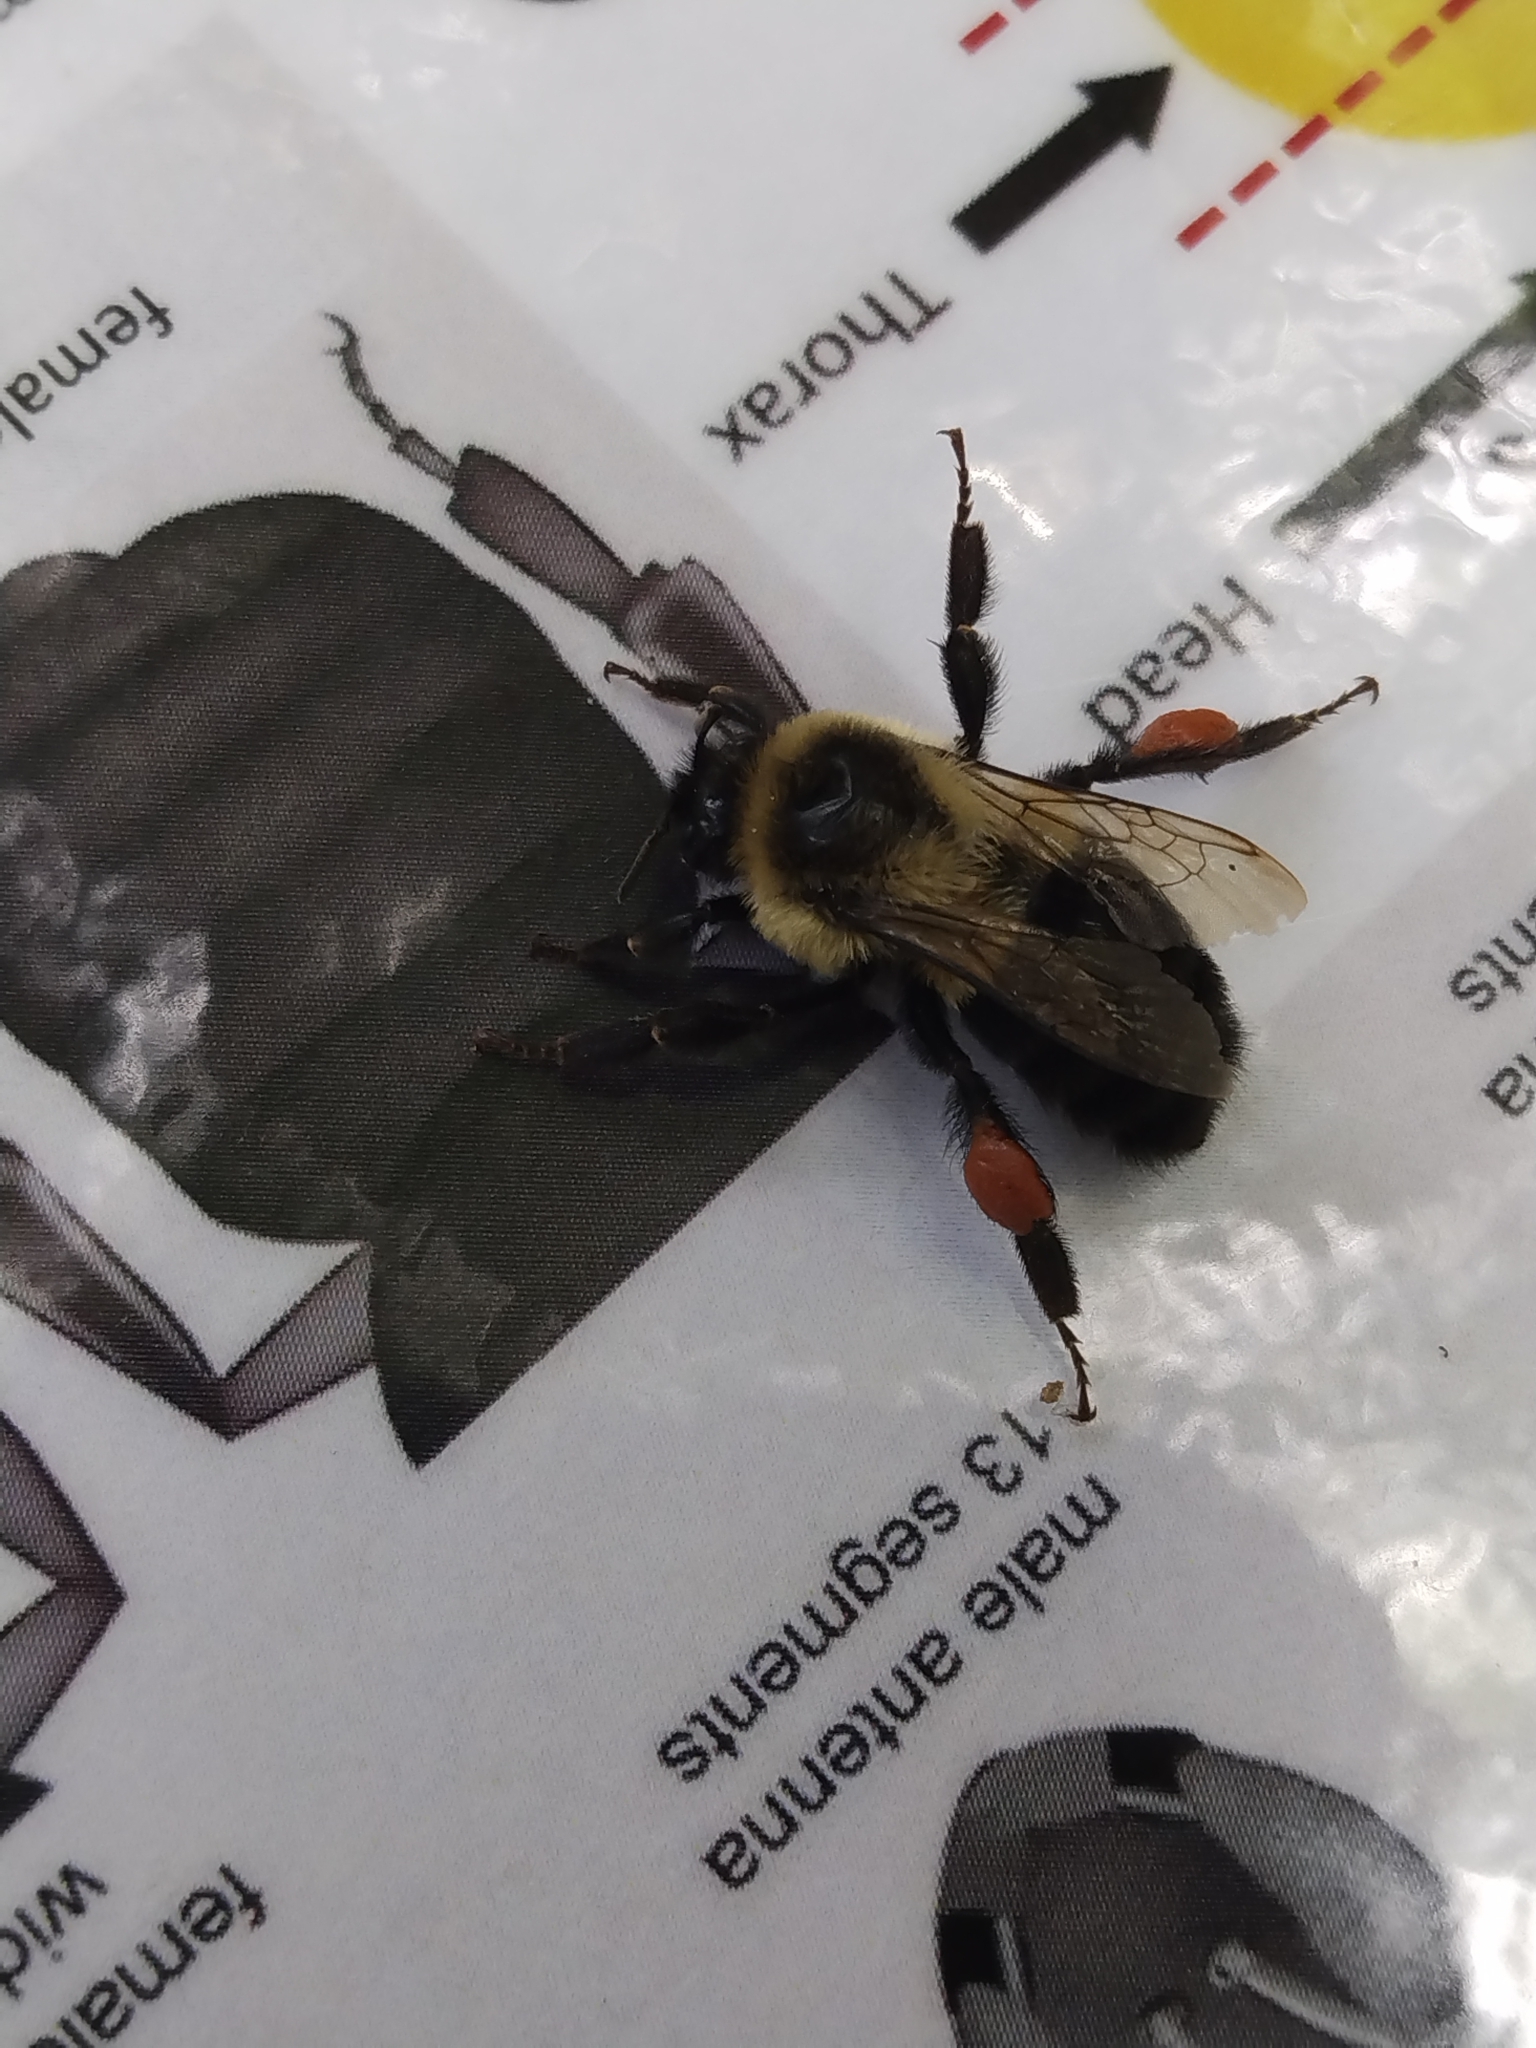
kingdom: Animalia
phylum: Arthropoda
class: Insecta
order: Hymenoptera
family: Apidae
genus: Bombus
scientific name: Bombus impatiens
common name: Common eastern bumble bee
